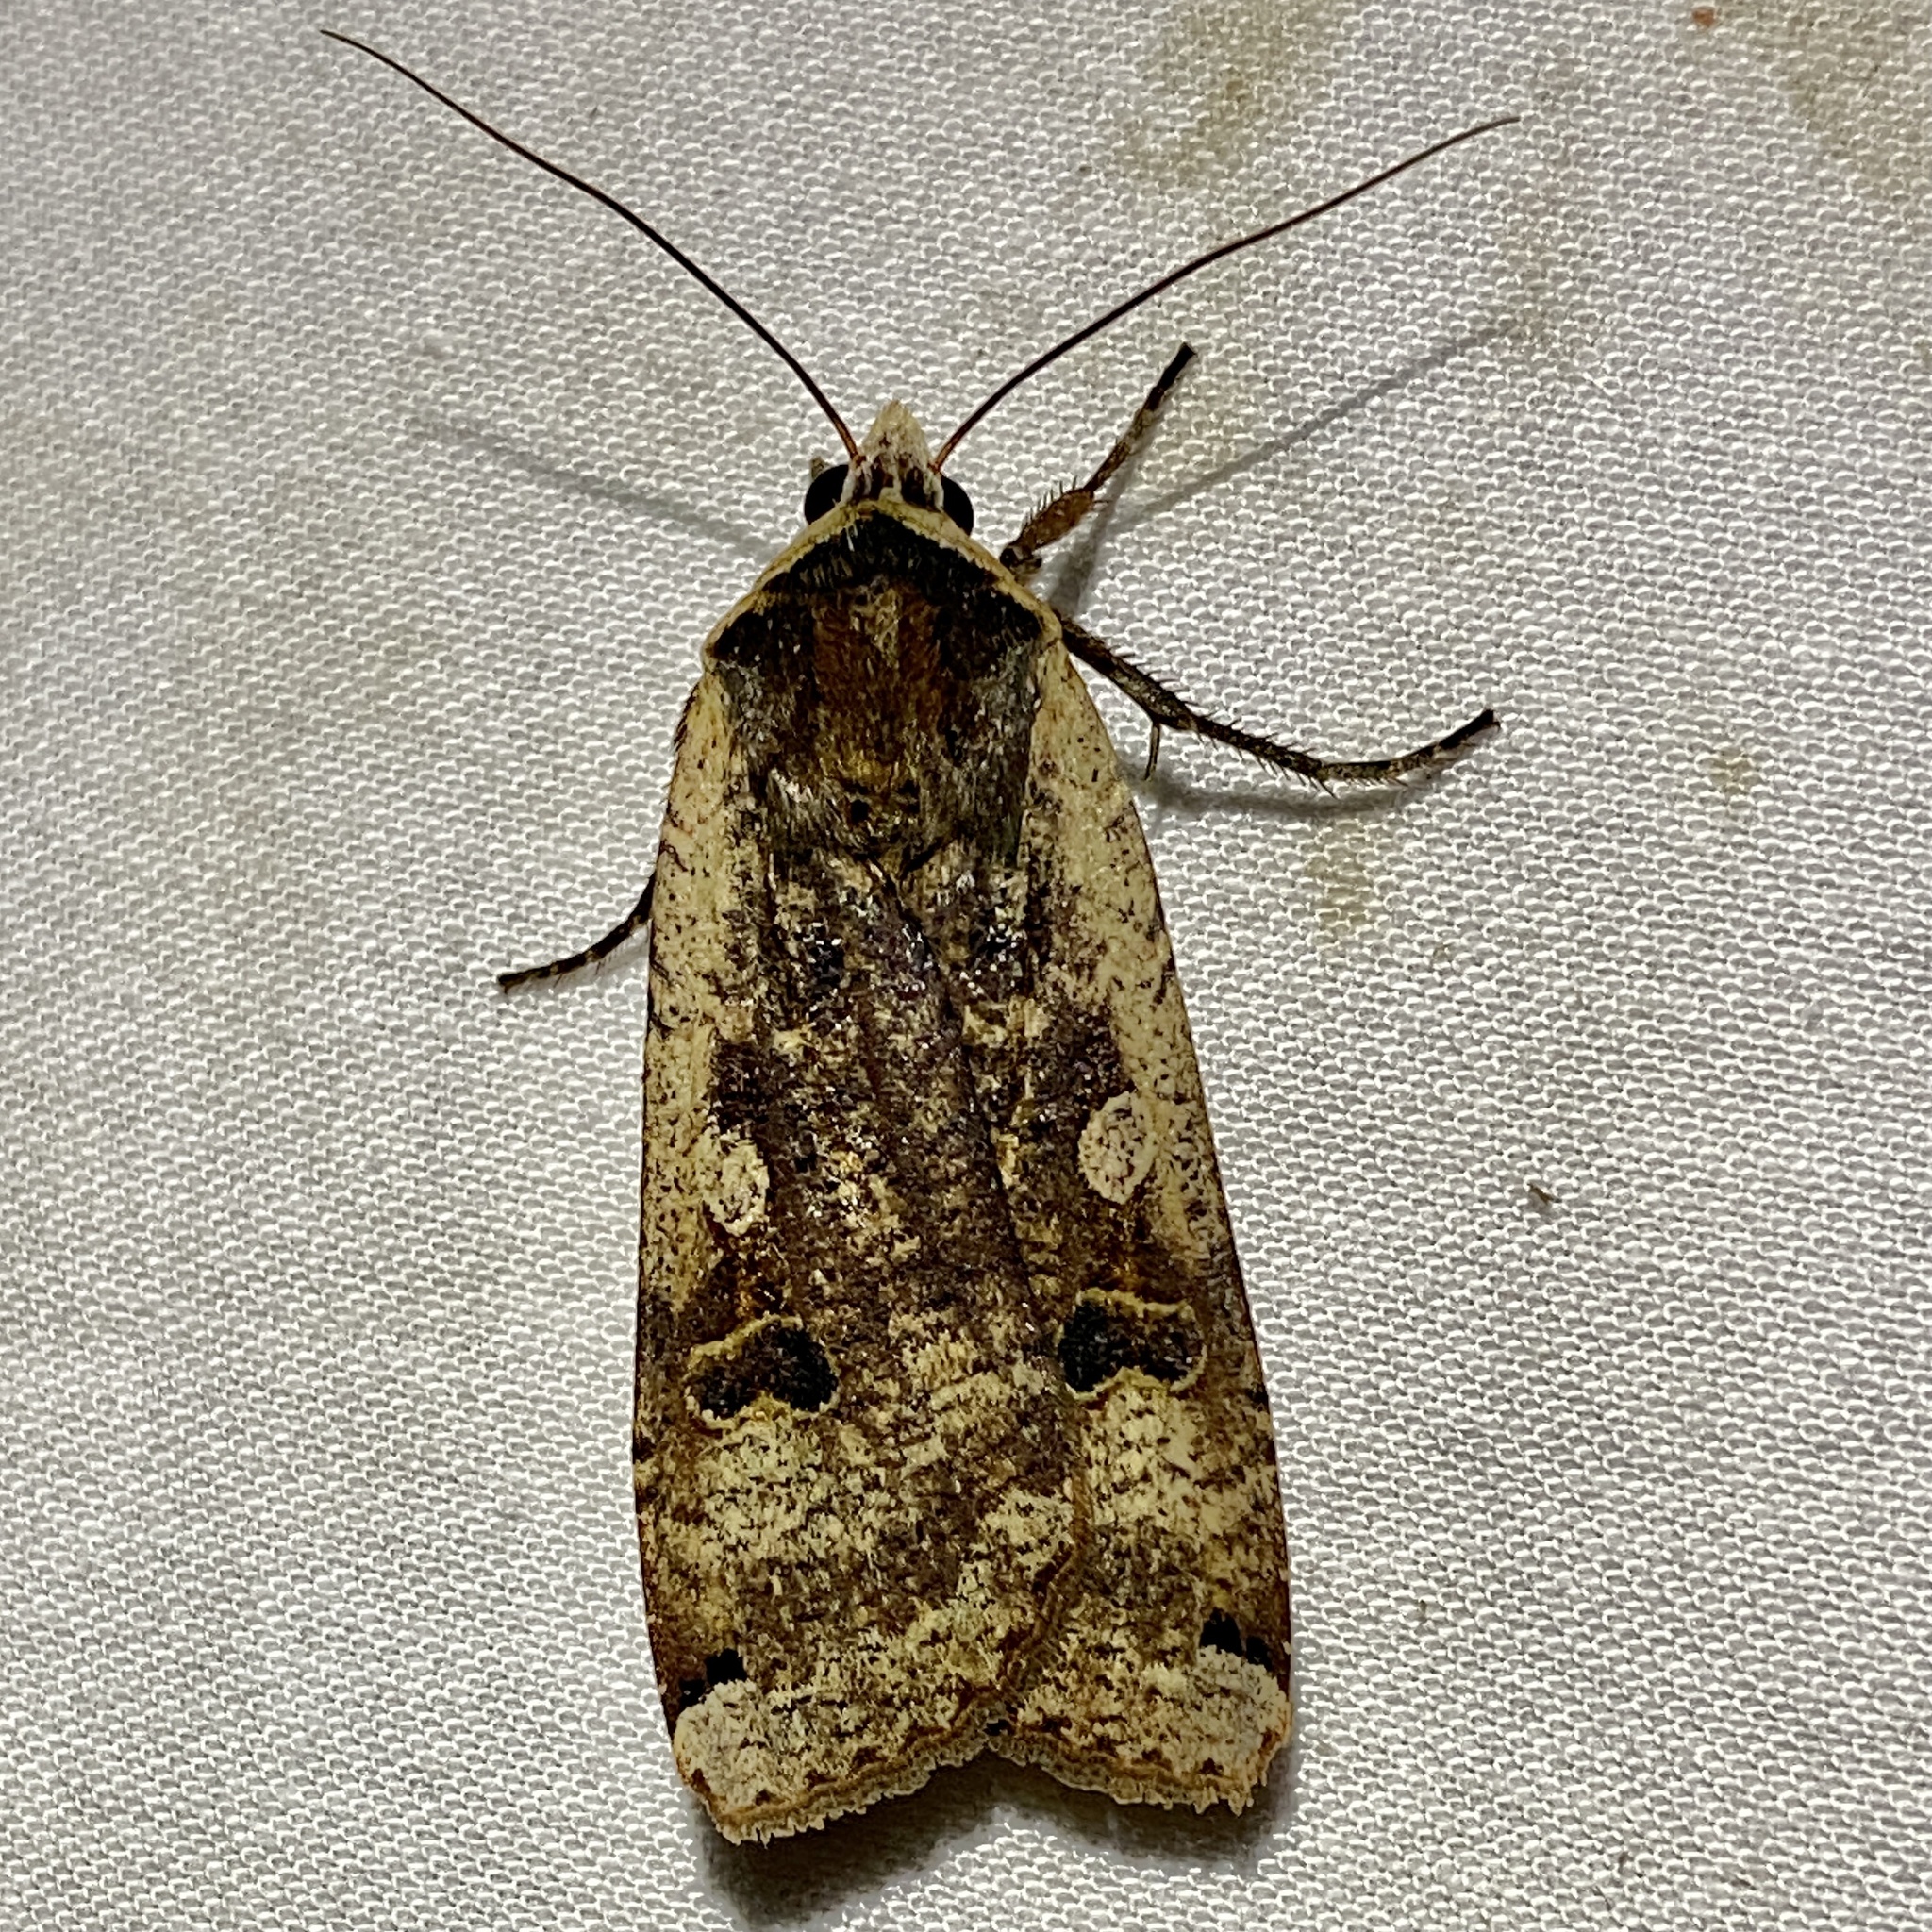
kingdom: Animalia
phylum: Arthropoda
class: Insecta
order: Lepidoptera
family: Noctuidae
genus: Noctua
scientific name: Noctua pronuba
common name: Large yellow underwing
